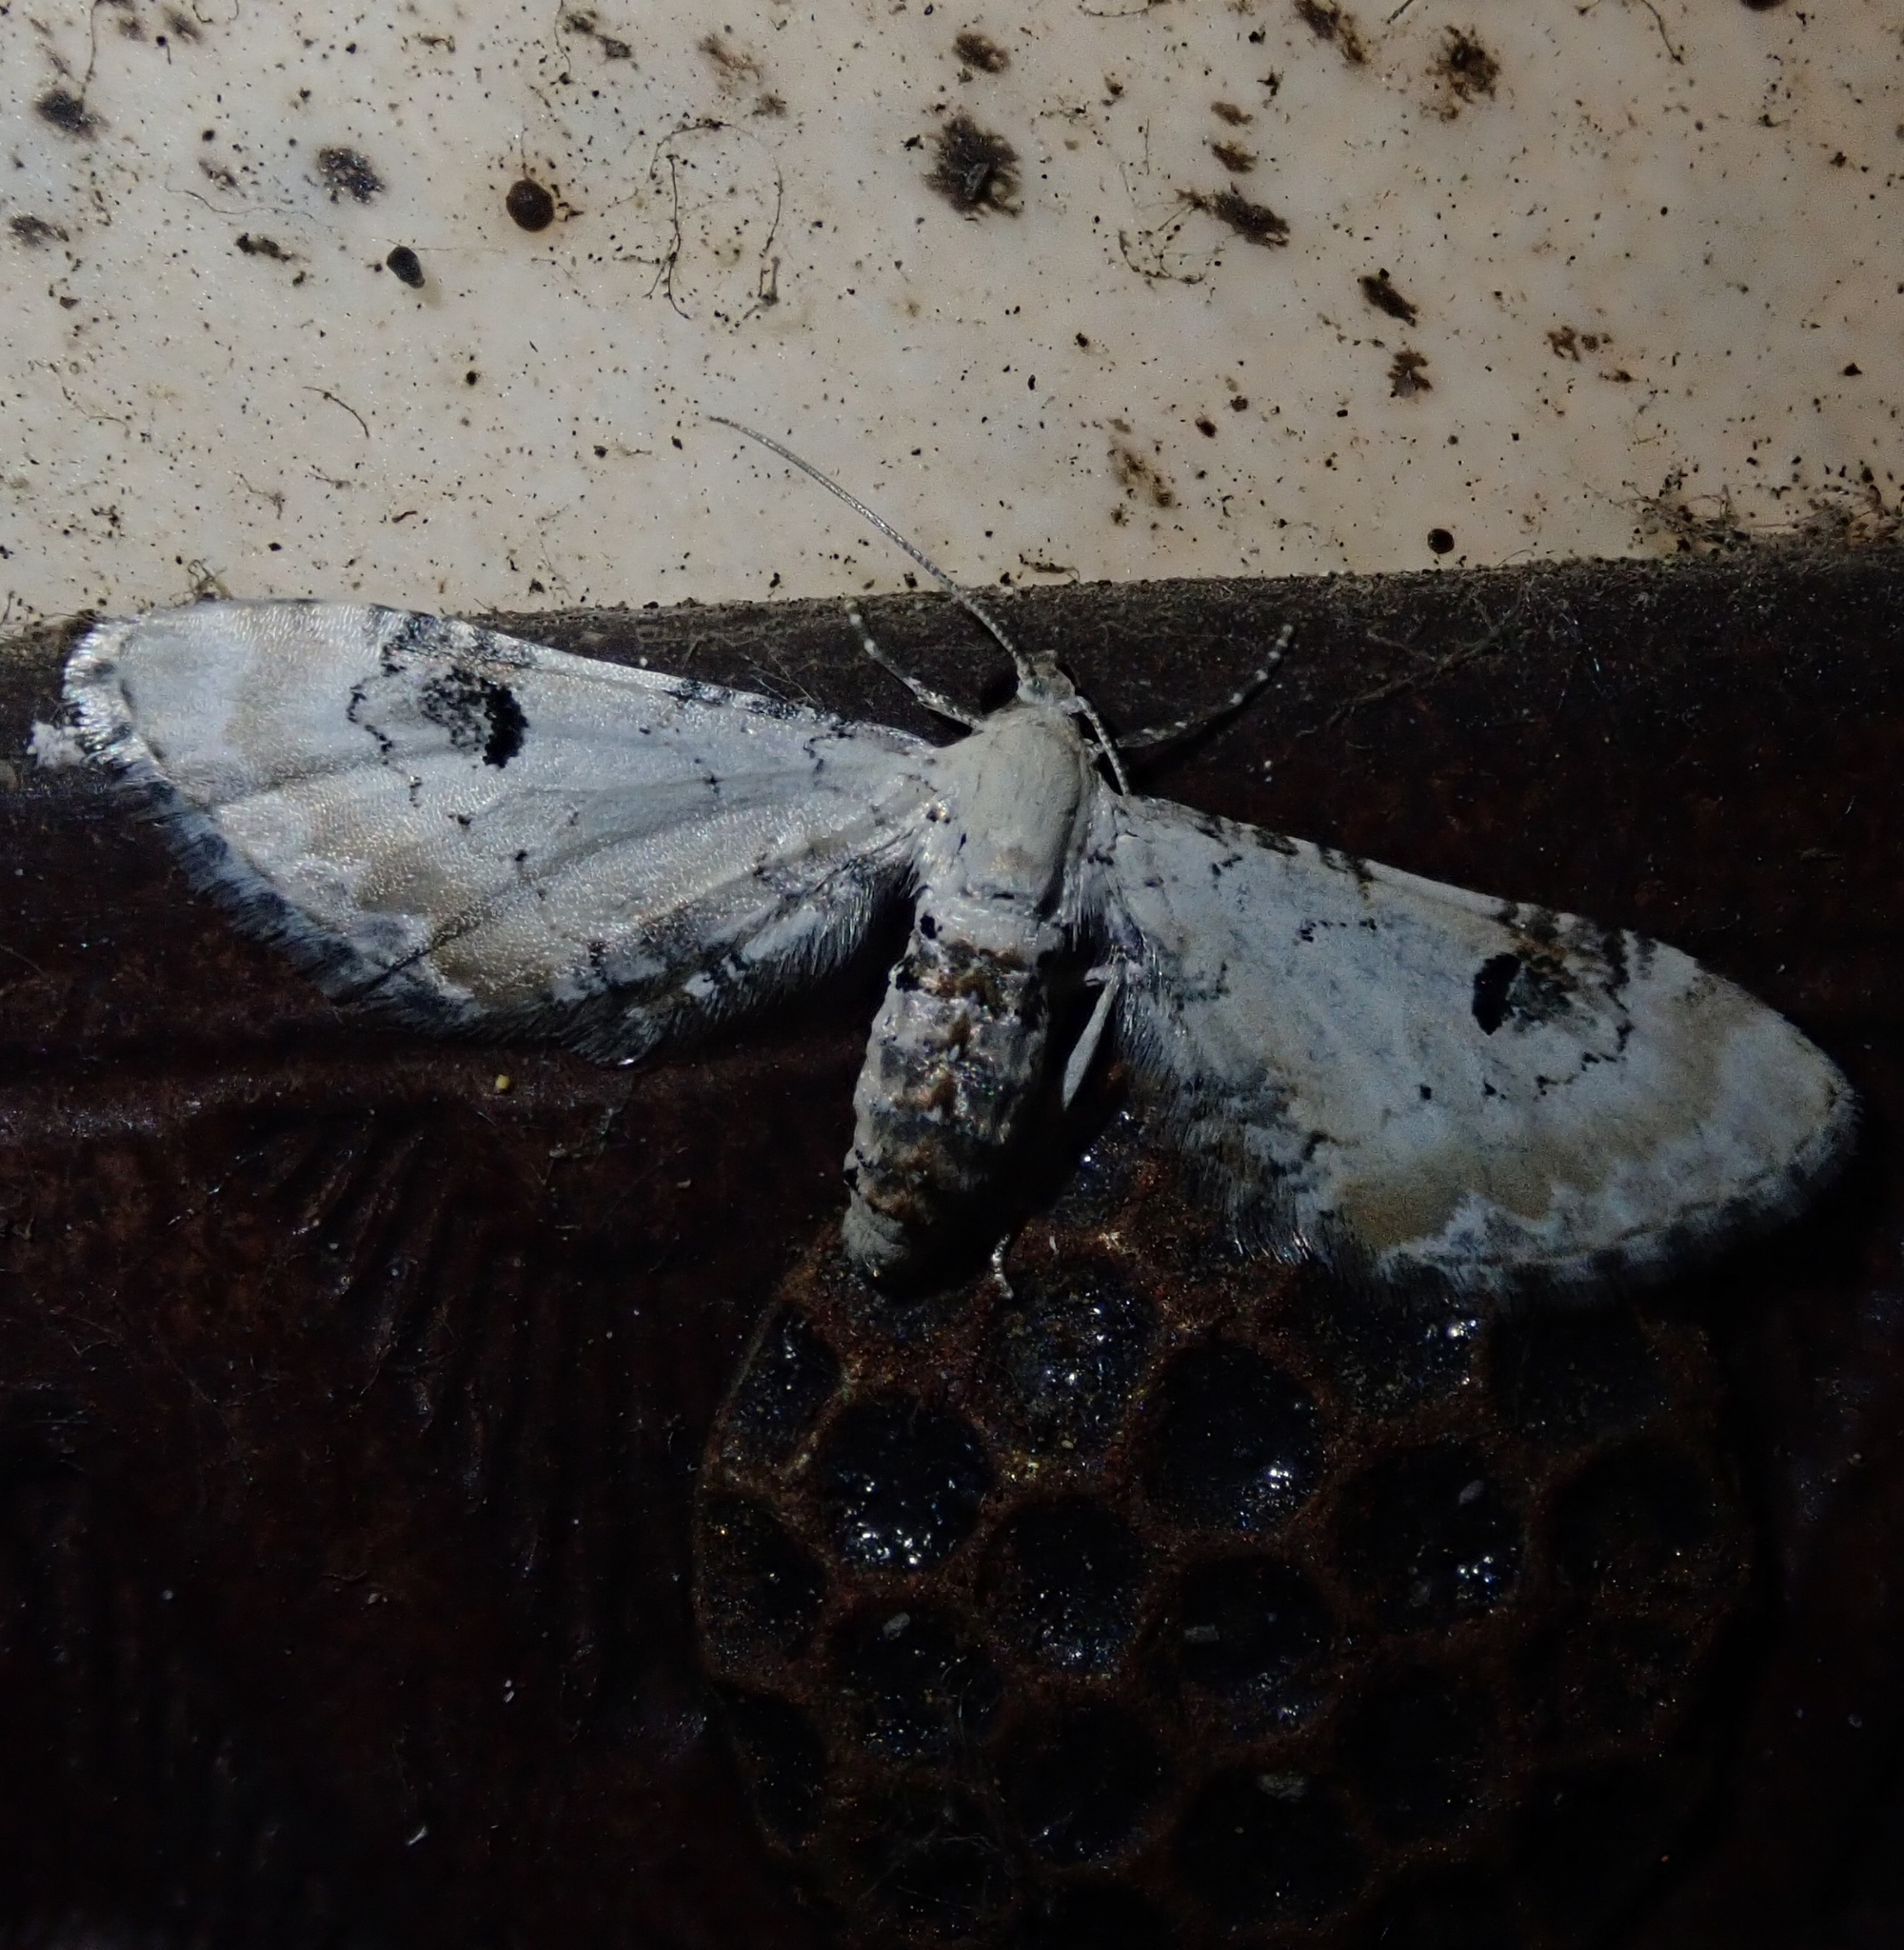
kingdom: Animalia
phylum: Arthropoda
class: Insecta
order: Lepidoptera
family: Geometridae
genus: Eupithecia
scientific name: Eupithecia centaureata
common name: Lime-speck pug
